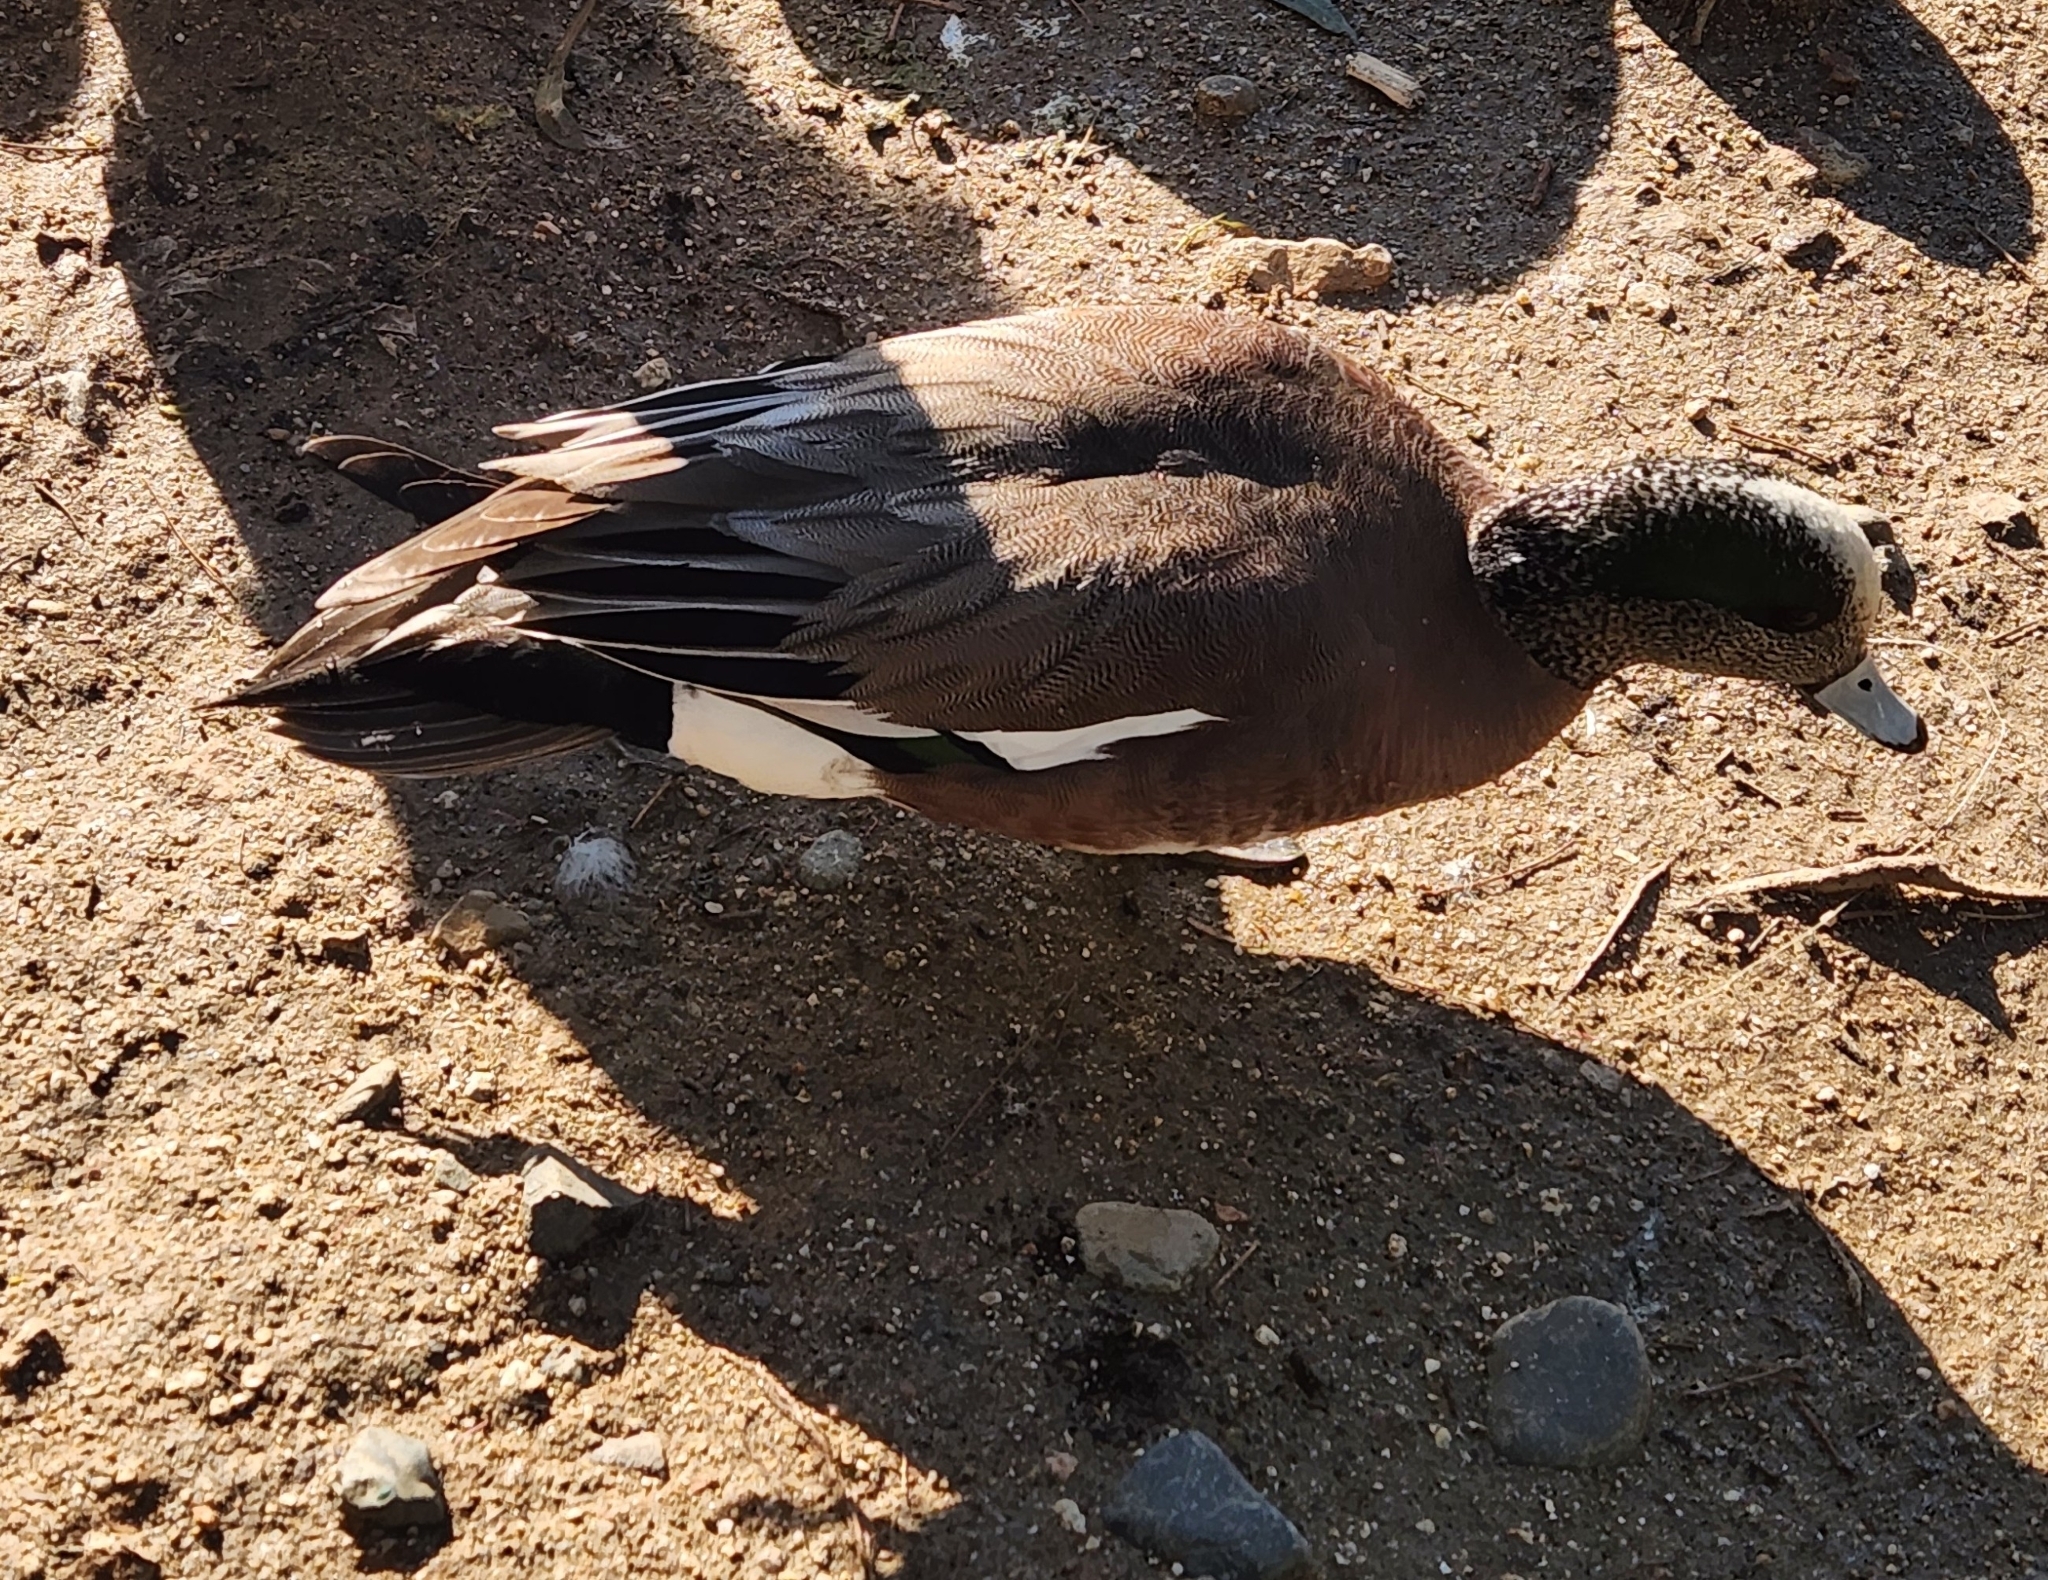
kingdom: Animalia
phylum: Chordata
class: Aves
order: Anseriformes
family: Anatidae
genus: Mareca
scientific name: Mareca americana
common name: American wigeon
